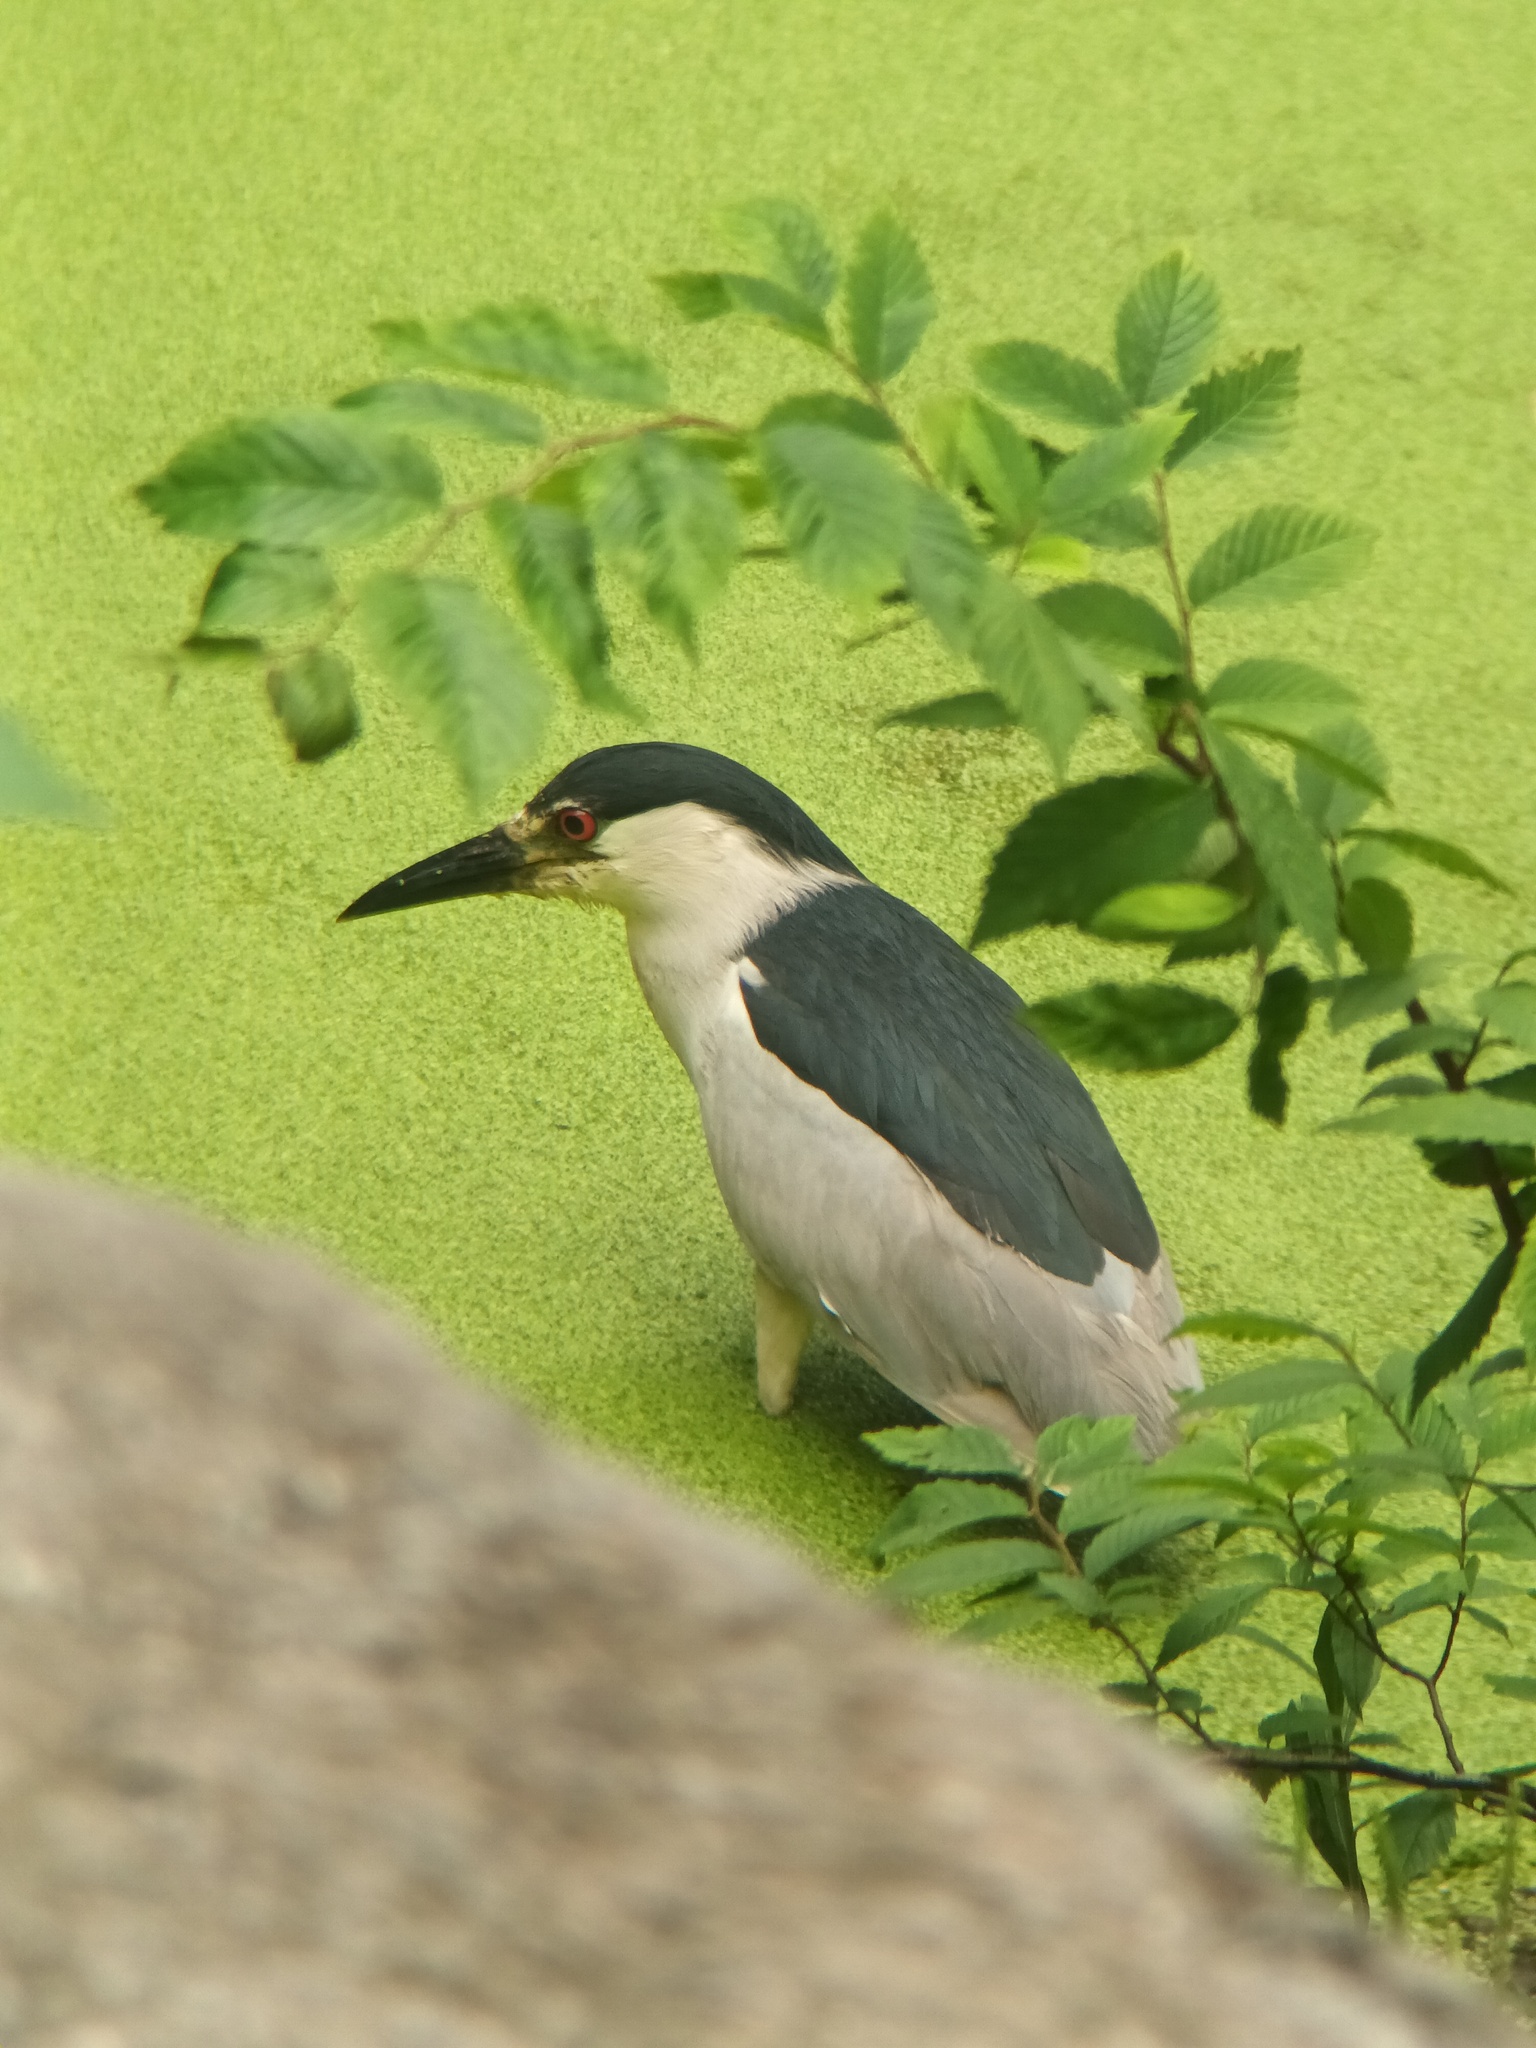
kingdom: Animalia
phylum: Chordata
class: Aves
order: Pelecaniformes
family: Ardeidae
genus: Nycticorax
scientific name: Nycticorax nycticorax
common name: Black-crowned night heron
